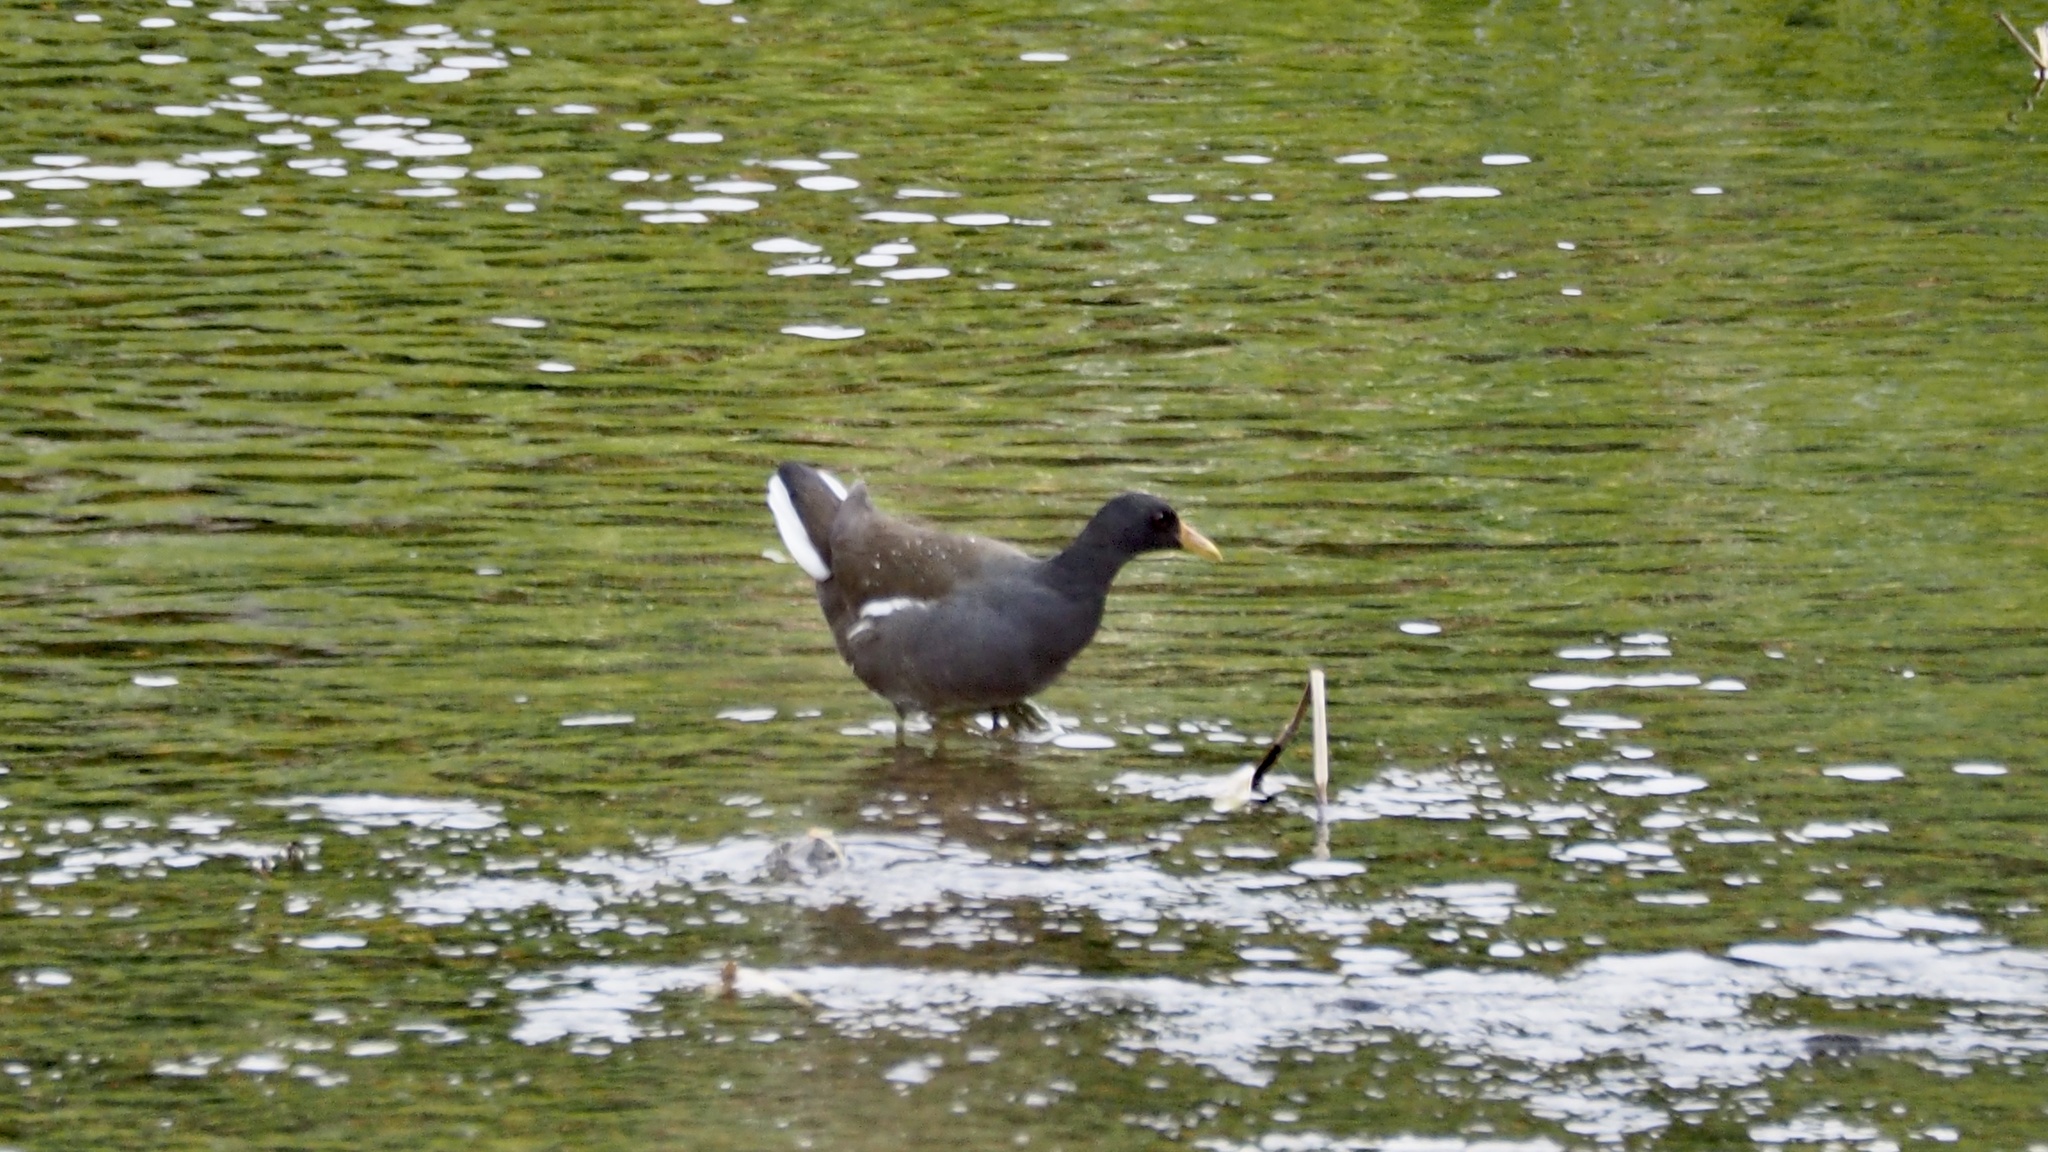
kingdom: Animalia
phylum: Chordata
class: Aves
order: Gruiformes
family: Rallidae
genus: Gallinula
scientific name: Gallinula chloropus
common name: Common moorhen
